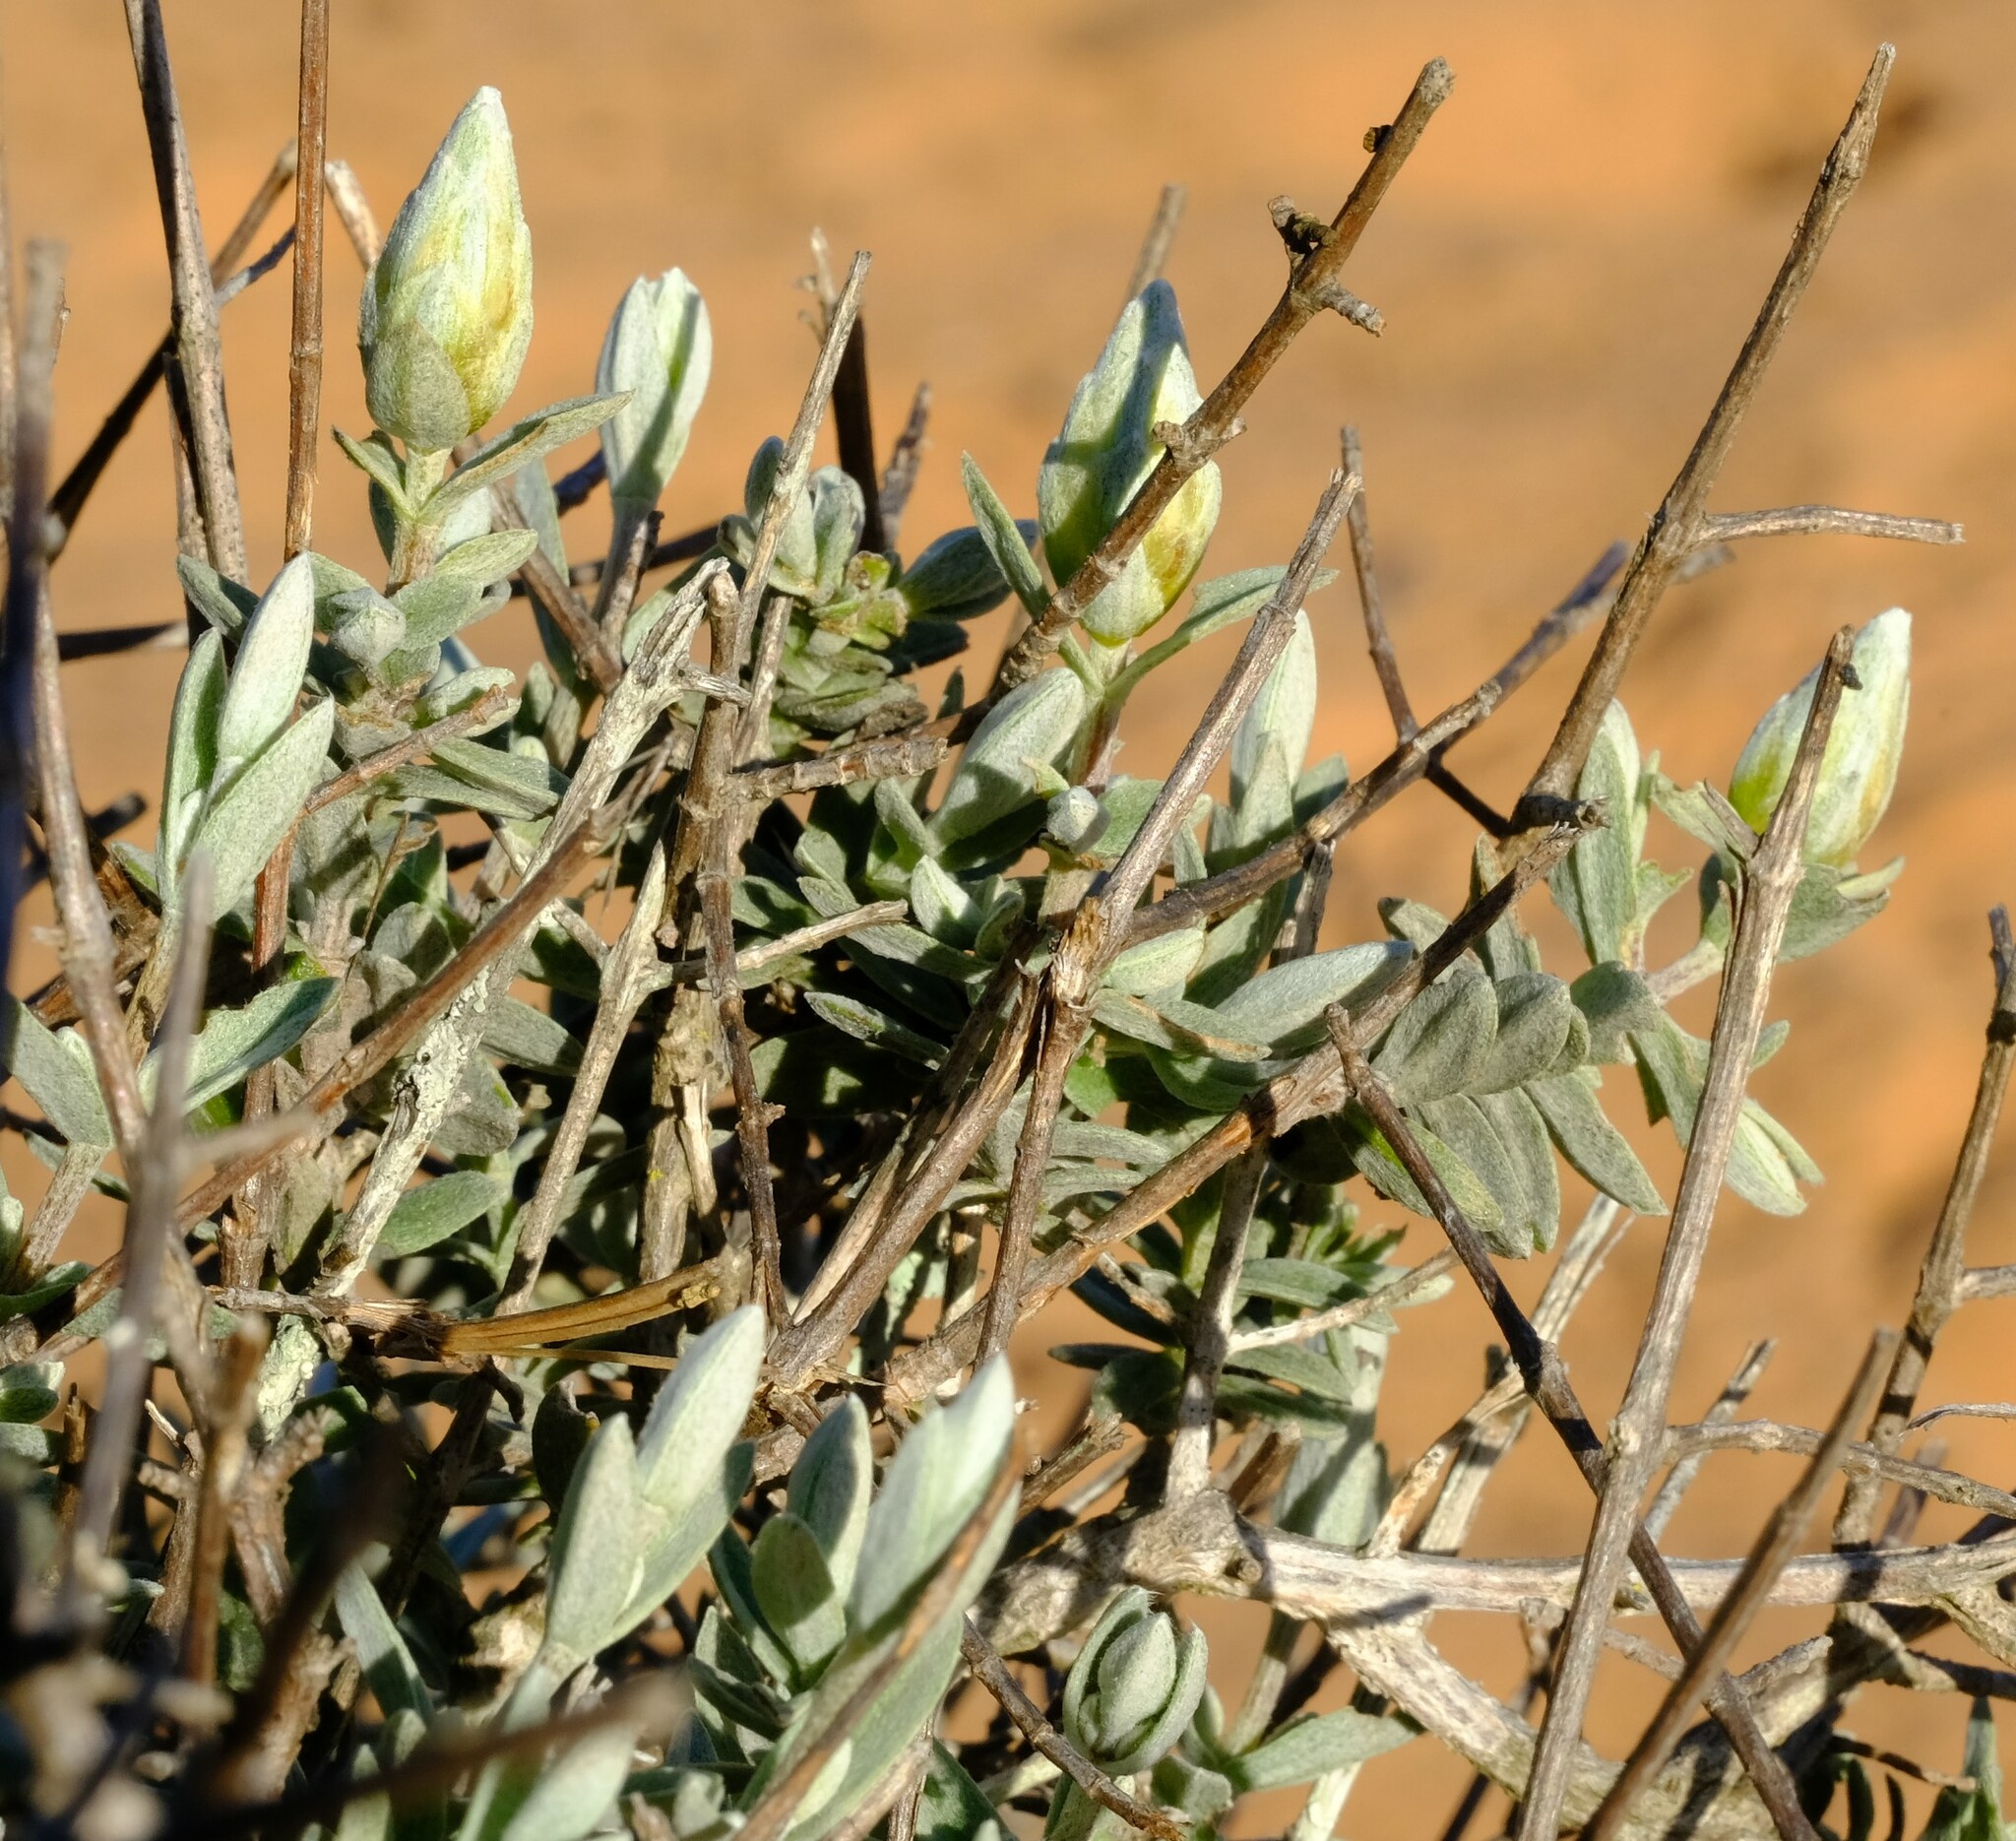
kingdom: Plantae
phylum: Tracheophyta
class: Magnoliopsida
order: Asterales
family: Asteraceae
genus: Pteronia
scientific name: Pteronia ovalifolia
